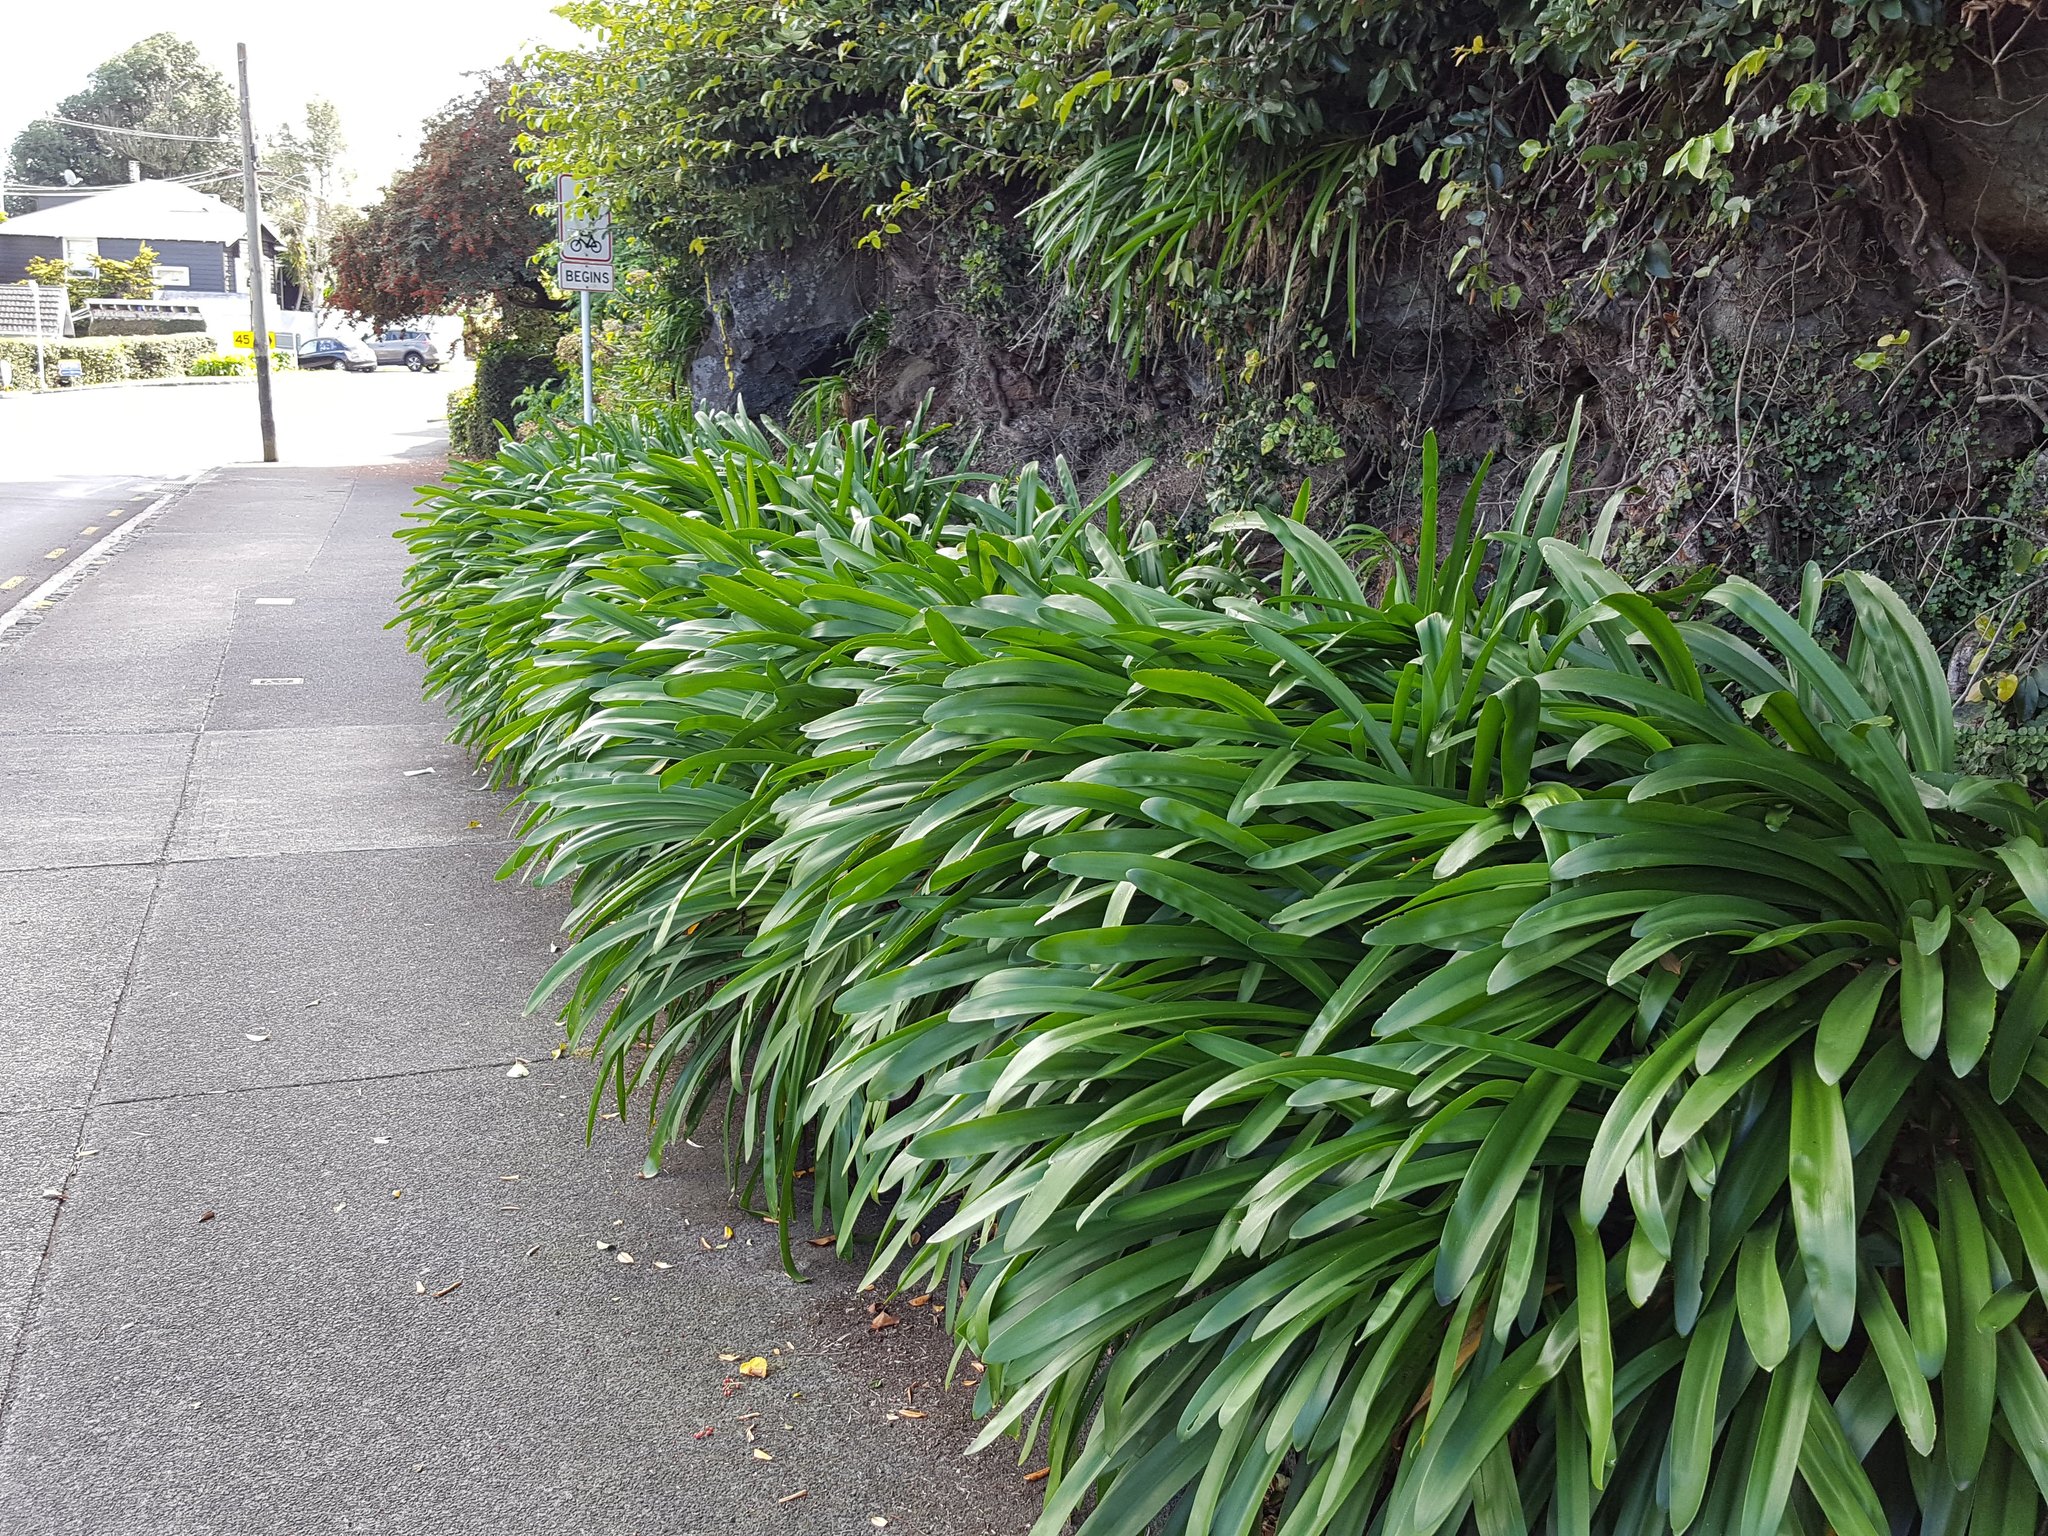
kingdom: Plantae
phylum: Tracheophyta
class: Liliopsida
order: Asparagales
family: Amaryllidaceae
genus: Agapanthus
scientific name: Agapanthus praecox
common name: African-lily
